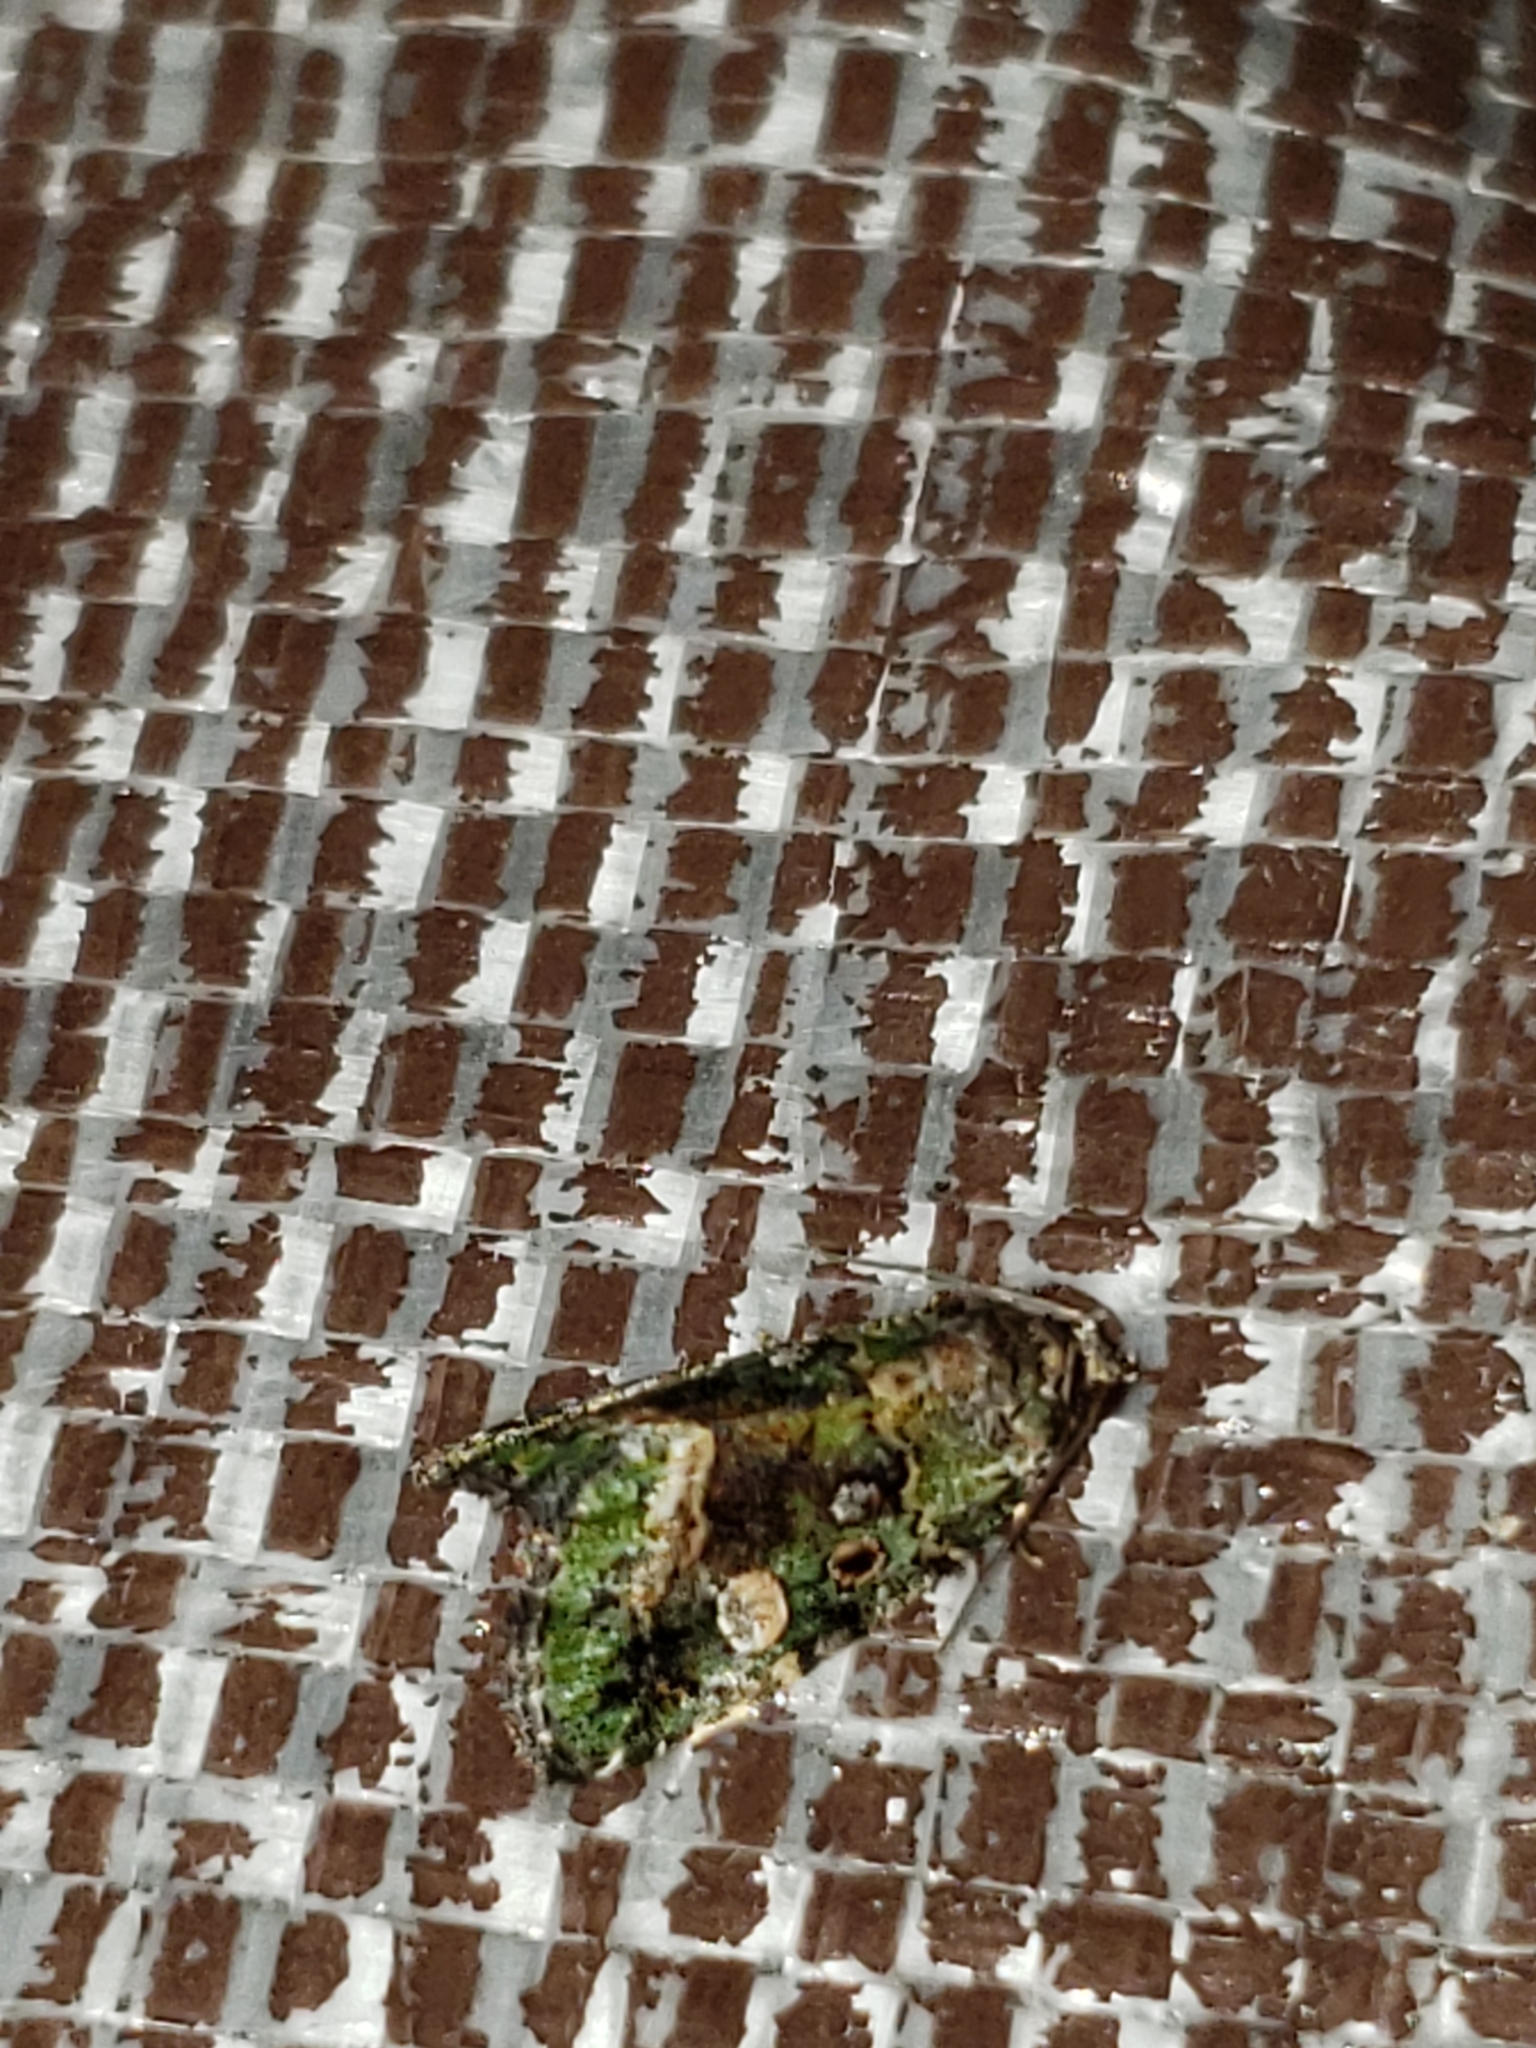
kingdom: Animalia
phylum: Arthropoda
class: Insecta
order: Lepidoptera
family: Noctuidae
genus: Lithacodia
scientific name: Lithacodia musta
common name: Small mossy glyph
